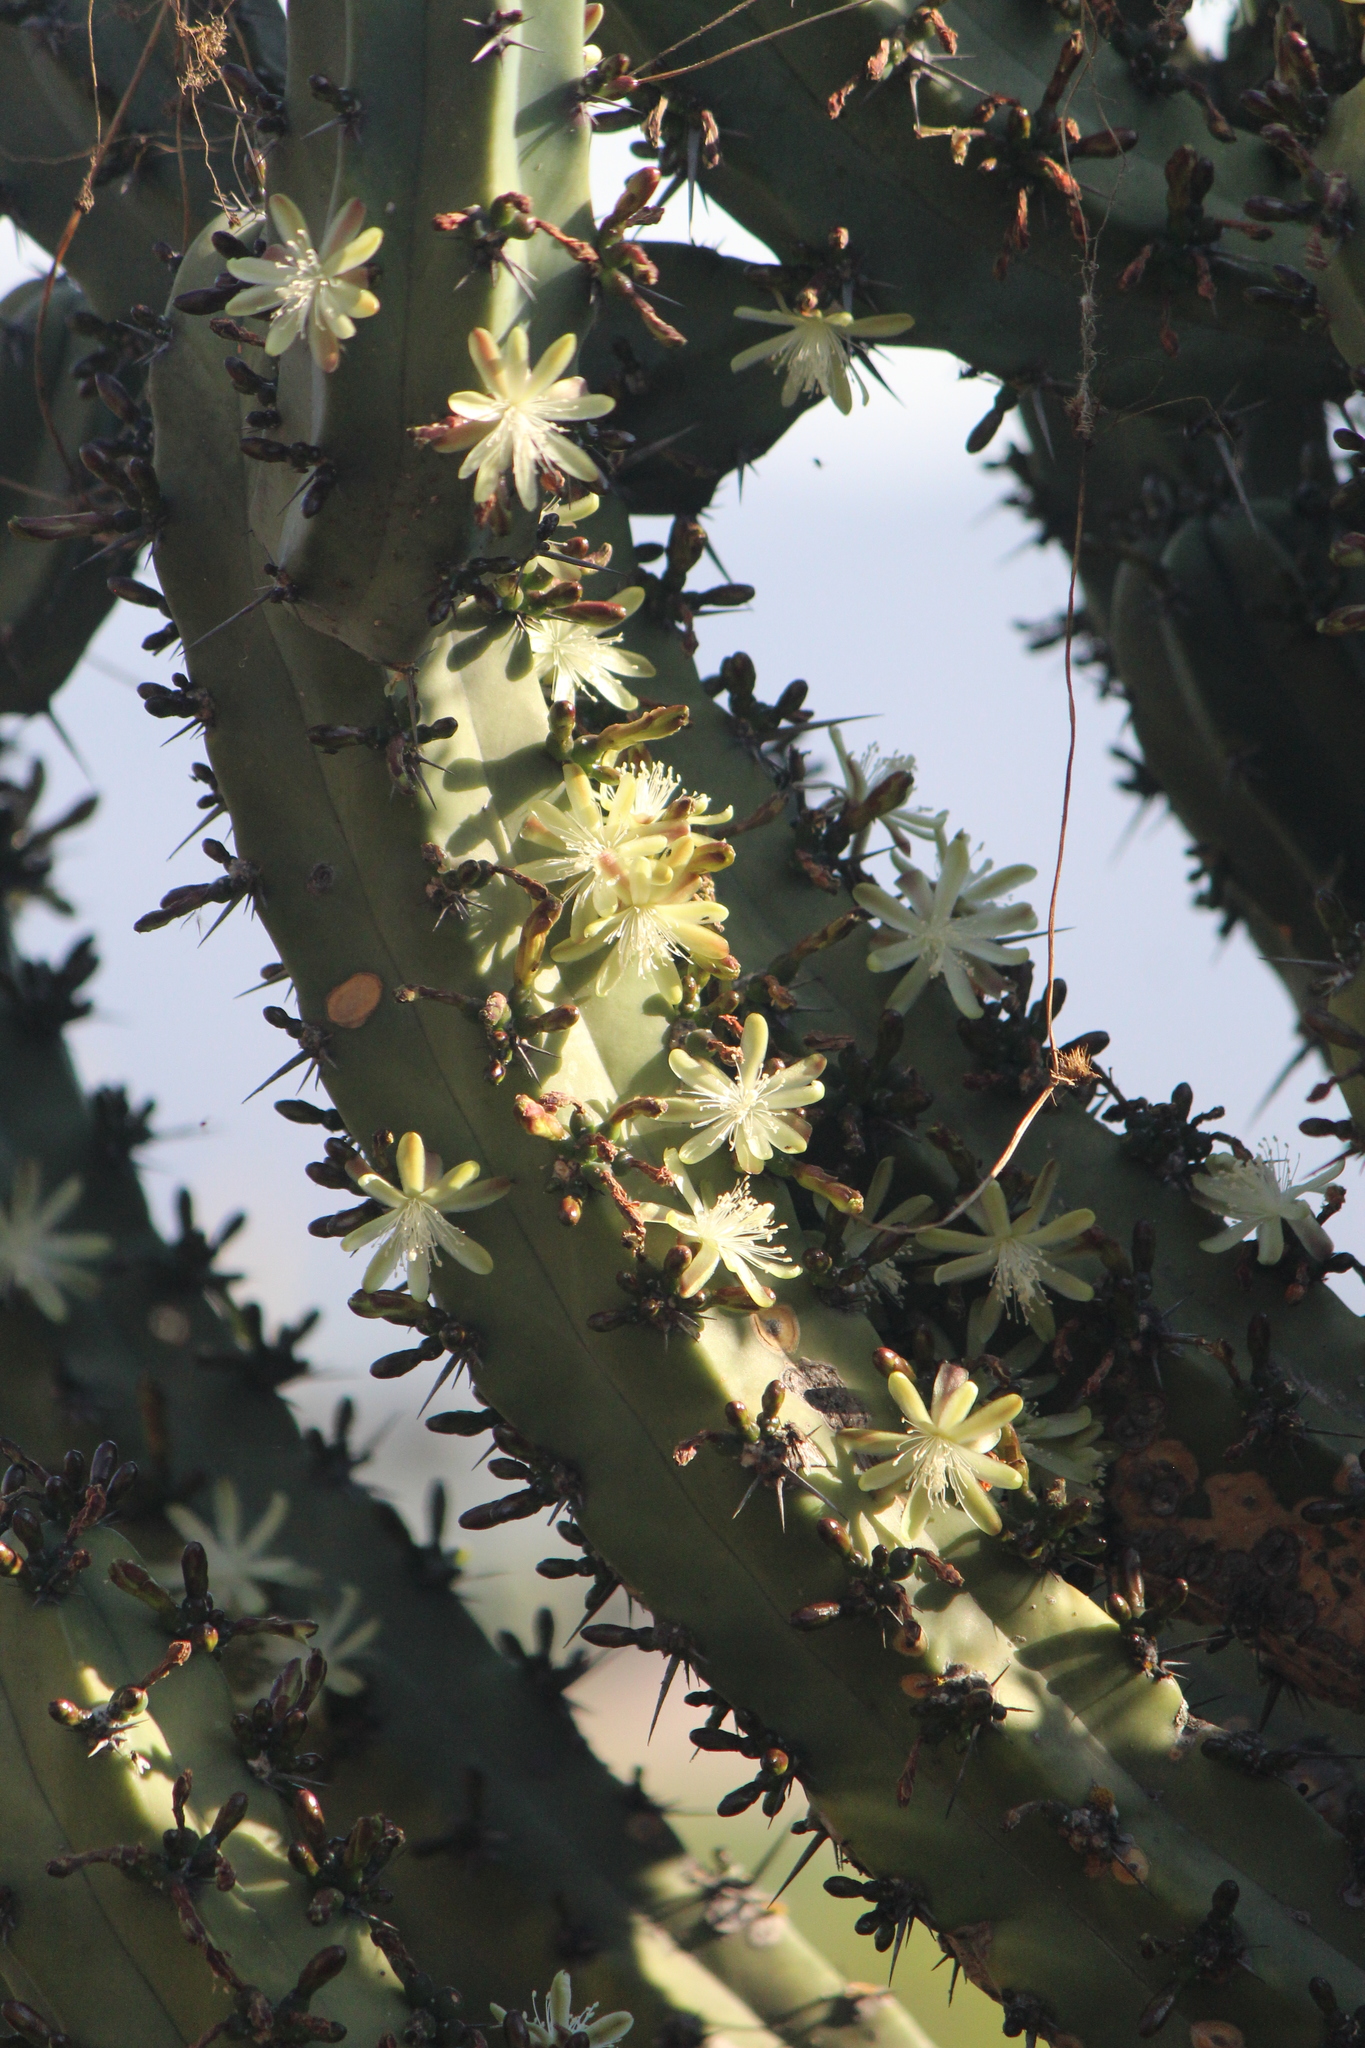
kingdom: Plantae
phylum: Tracheophyta
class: Magnoliopsida
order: Caryophyllales
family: Cactaceae
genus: Myrtillocactus
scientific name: Myrtillocactus geometrizans
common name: Bilberry cactus
